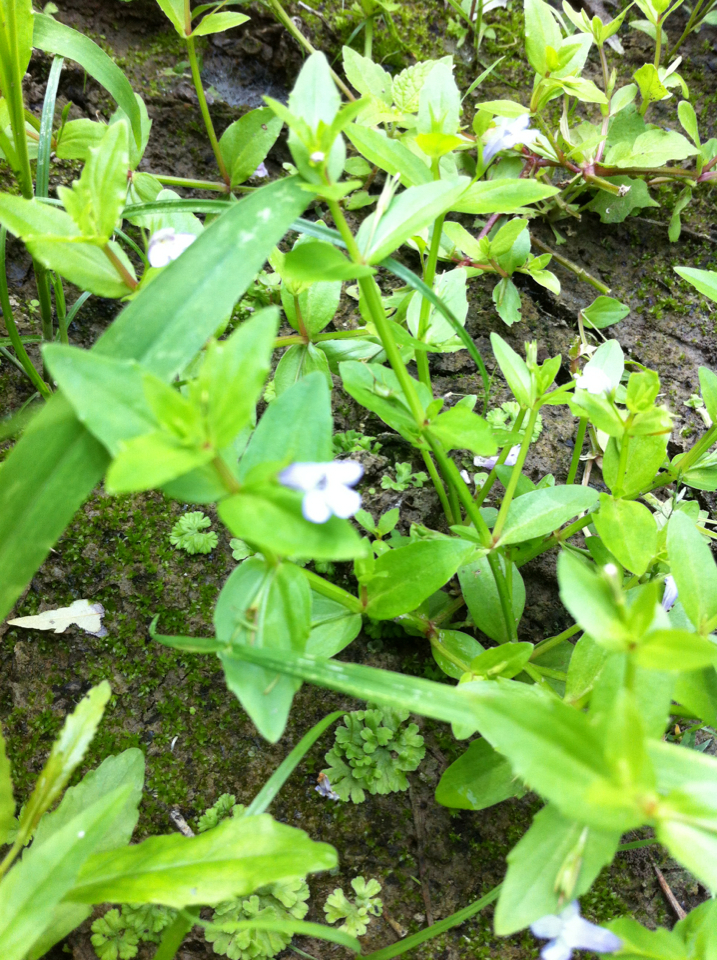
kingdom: Plantae
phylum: Tracheophyta
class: Magnoliopsida
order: Lamiales
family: Linderniaceae
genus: Lindernia
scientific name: Lindernia dubia
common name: Annual false pimpernel
